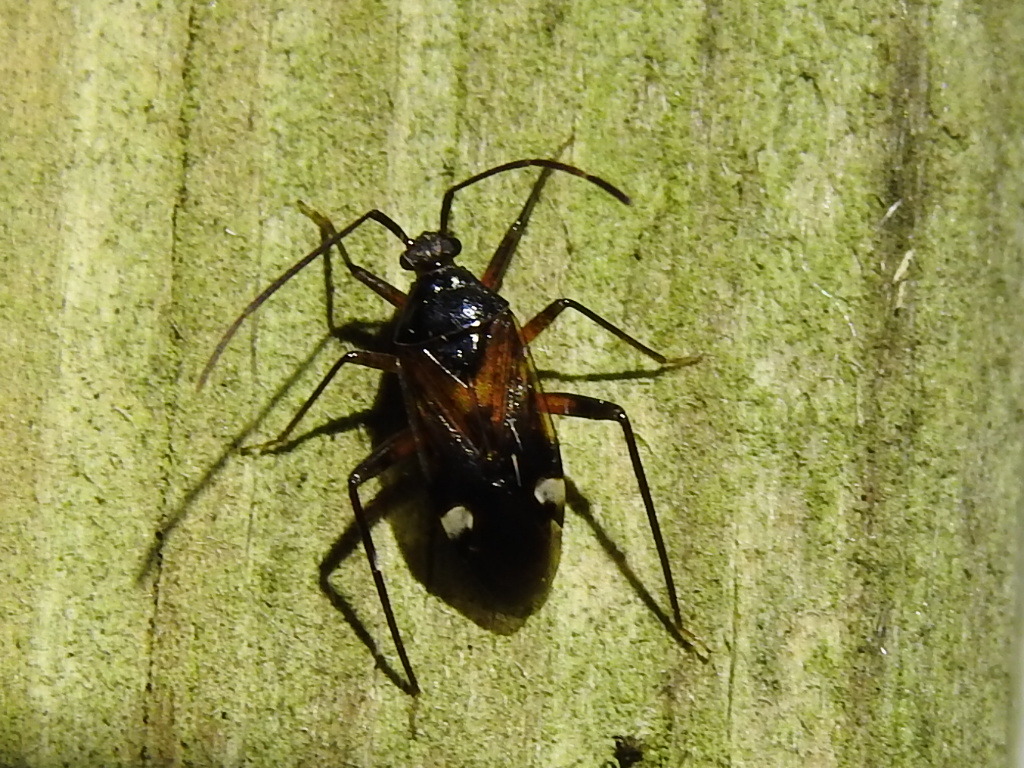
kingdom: Animalia
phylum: Arthropoda
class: Insecta
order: Hemiptera
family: Miridae
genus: Eustictus
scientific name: Eustictus albomaculatus
